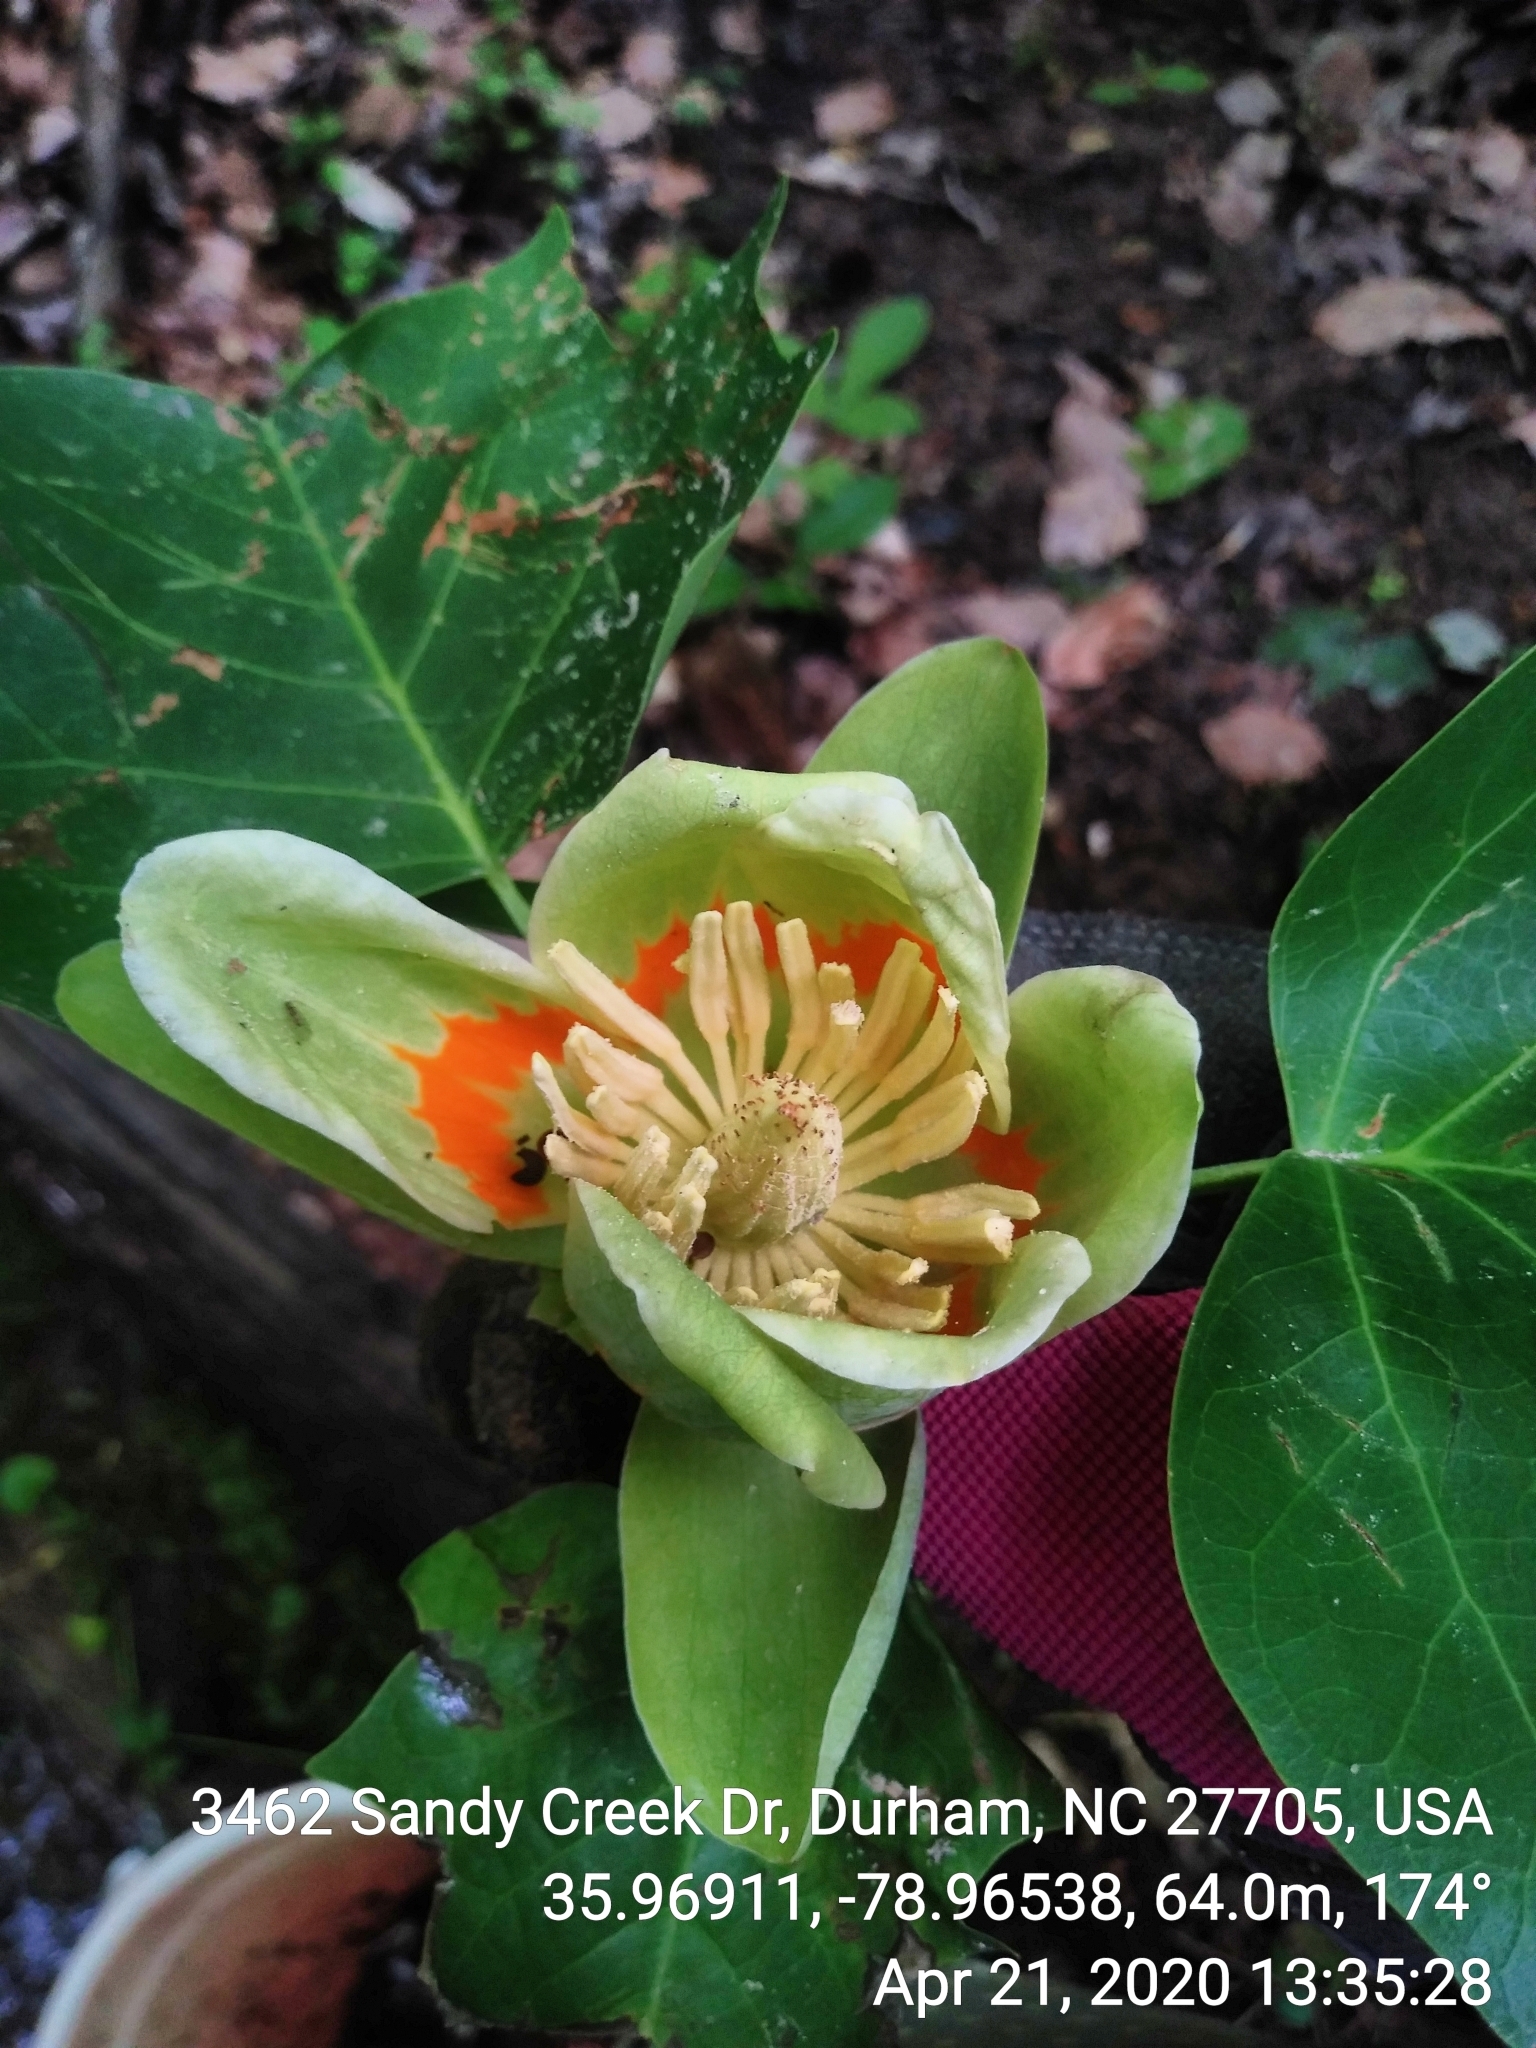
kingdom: Plantae
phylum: Tracheophyta
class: Magnoliopsida
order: Magnoliales
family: Magnoliaceae
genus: Liriodendron
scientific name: Liriodendron tulipifera
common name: Tulip tree
